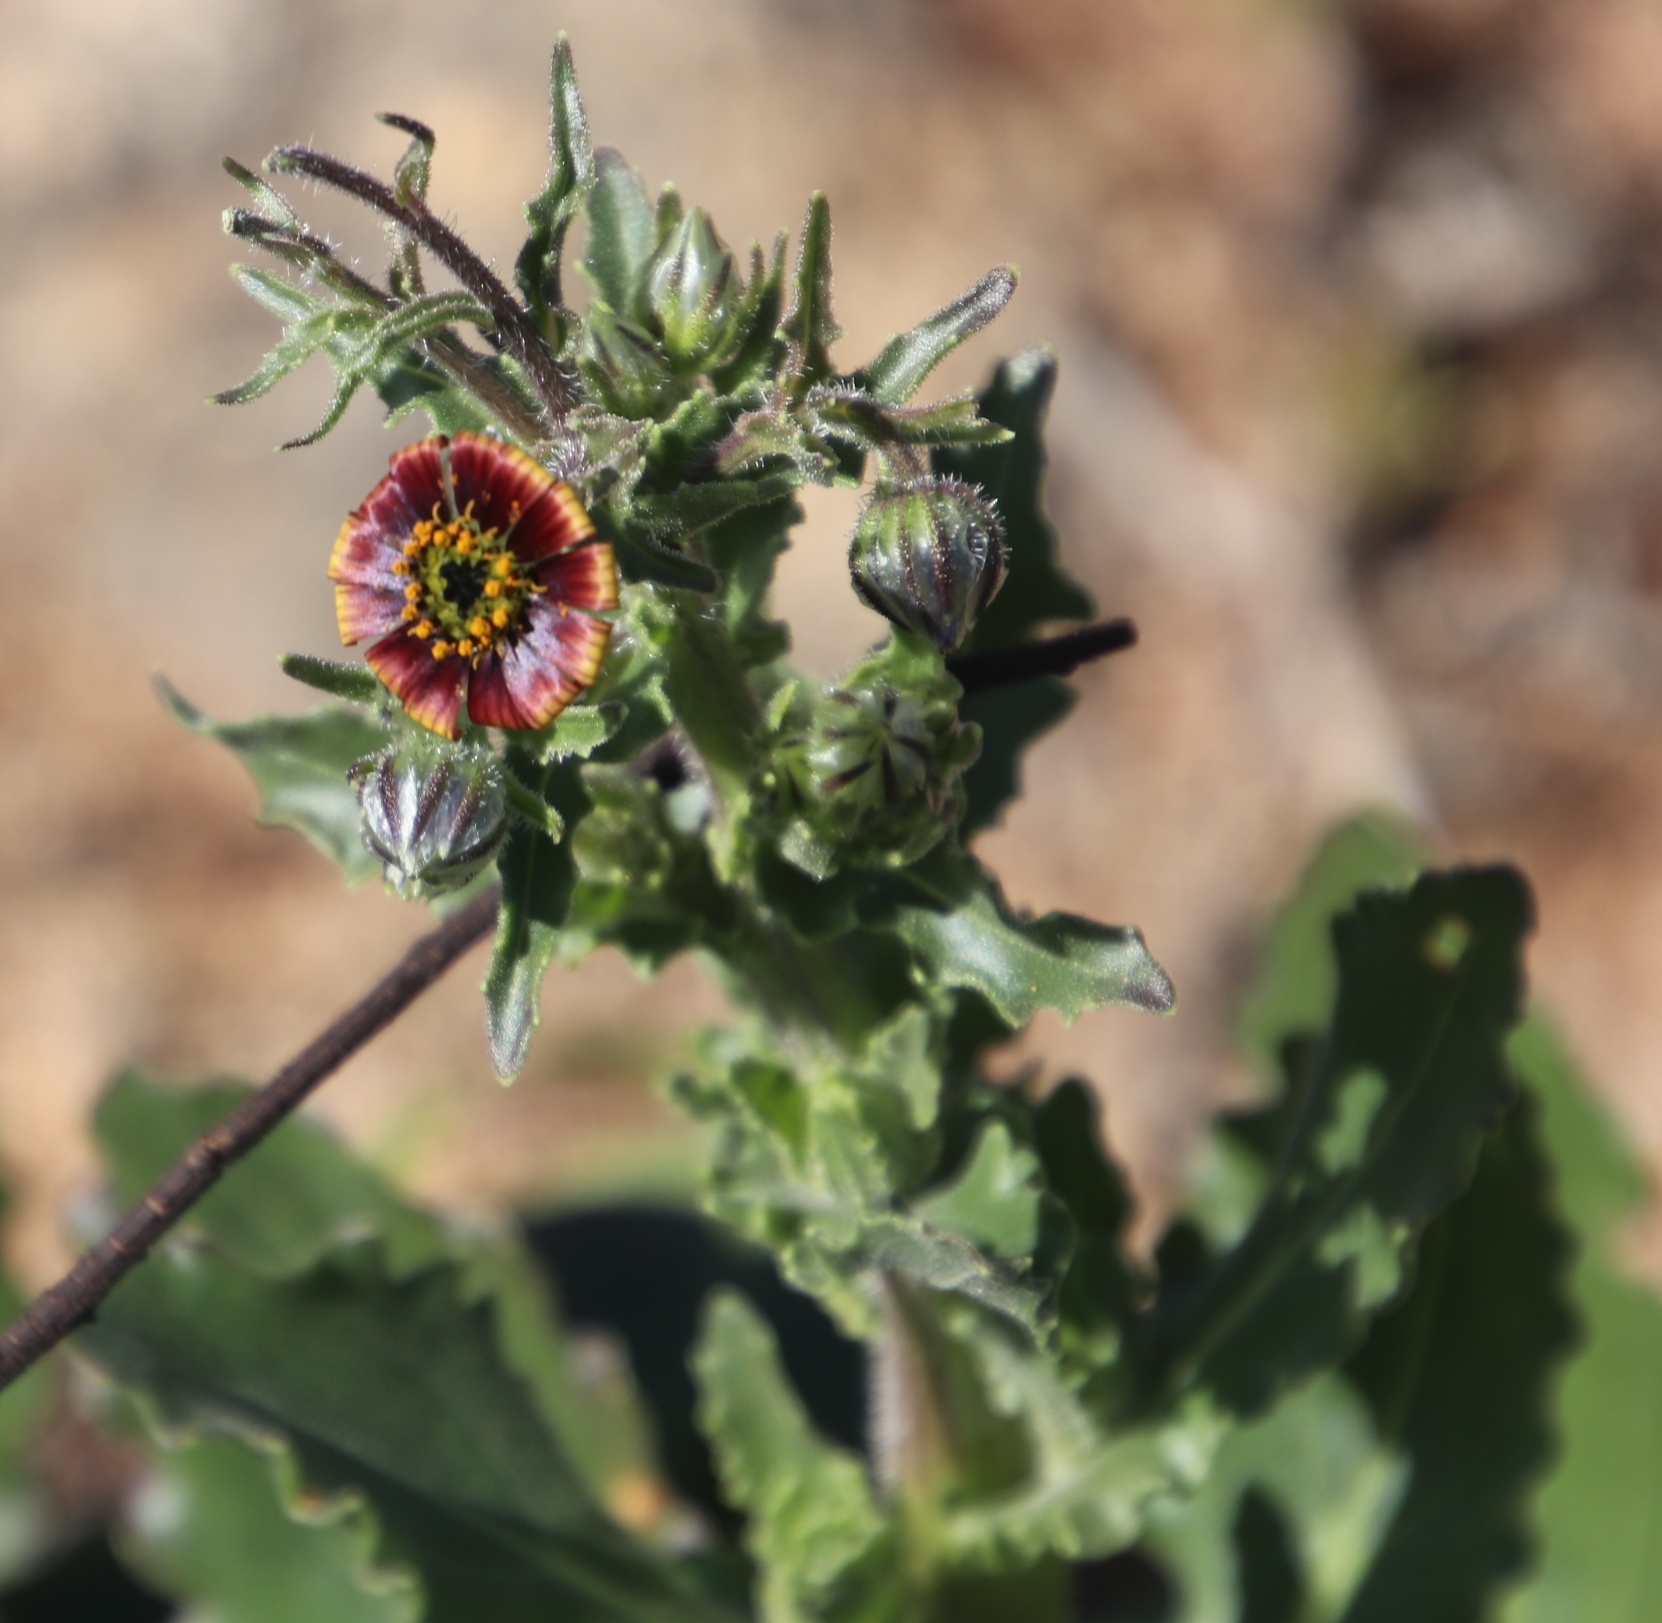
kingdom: Plantae
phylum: Tracheophyta
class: Magnoliopsida
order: Asterales
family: Asteraceae
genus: Osteospermum
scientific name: Osteospermum monstrosum
